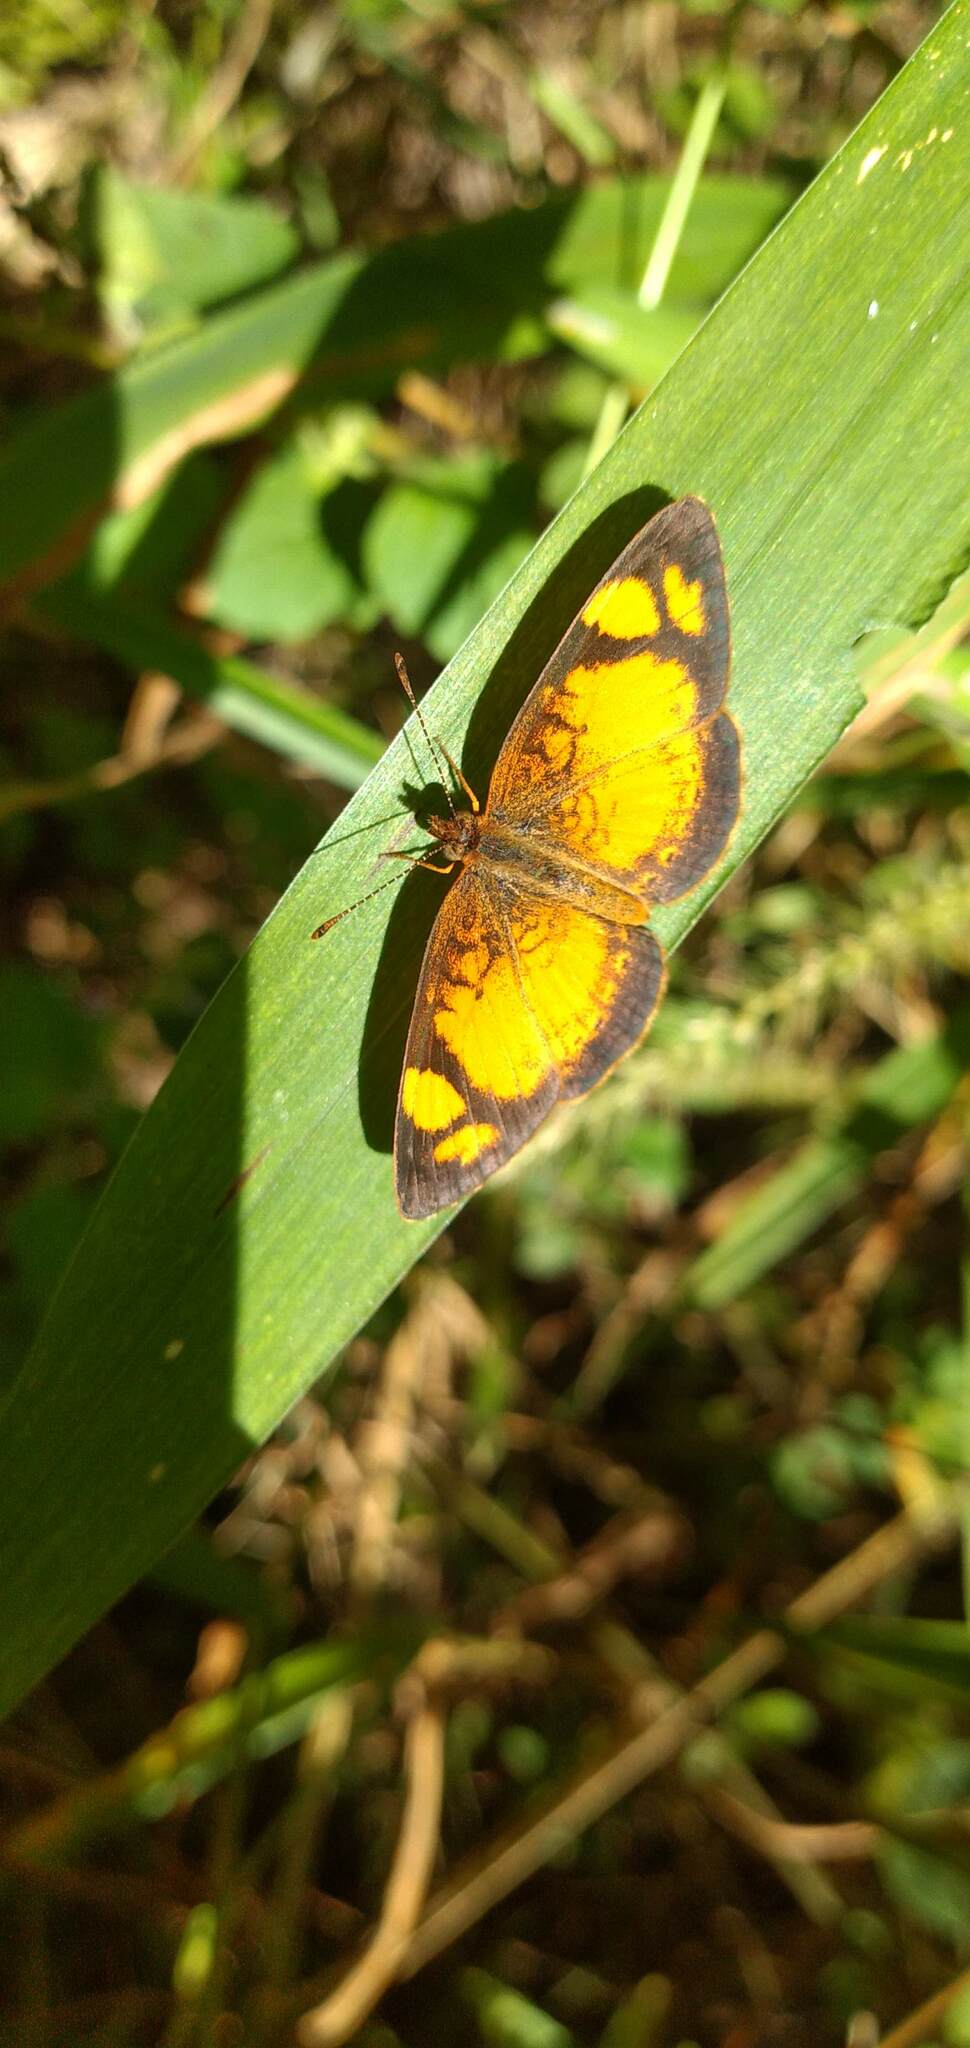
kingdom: Animalia
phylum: Arthropoda
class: Insecta
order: Lepidoptera
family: Nymphalidae
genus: Tegosa
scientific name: Tegosa claudina
